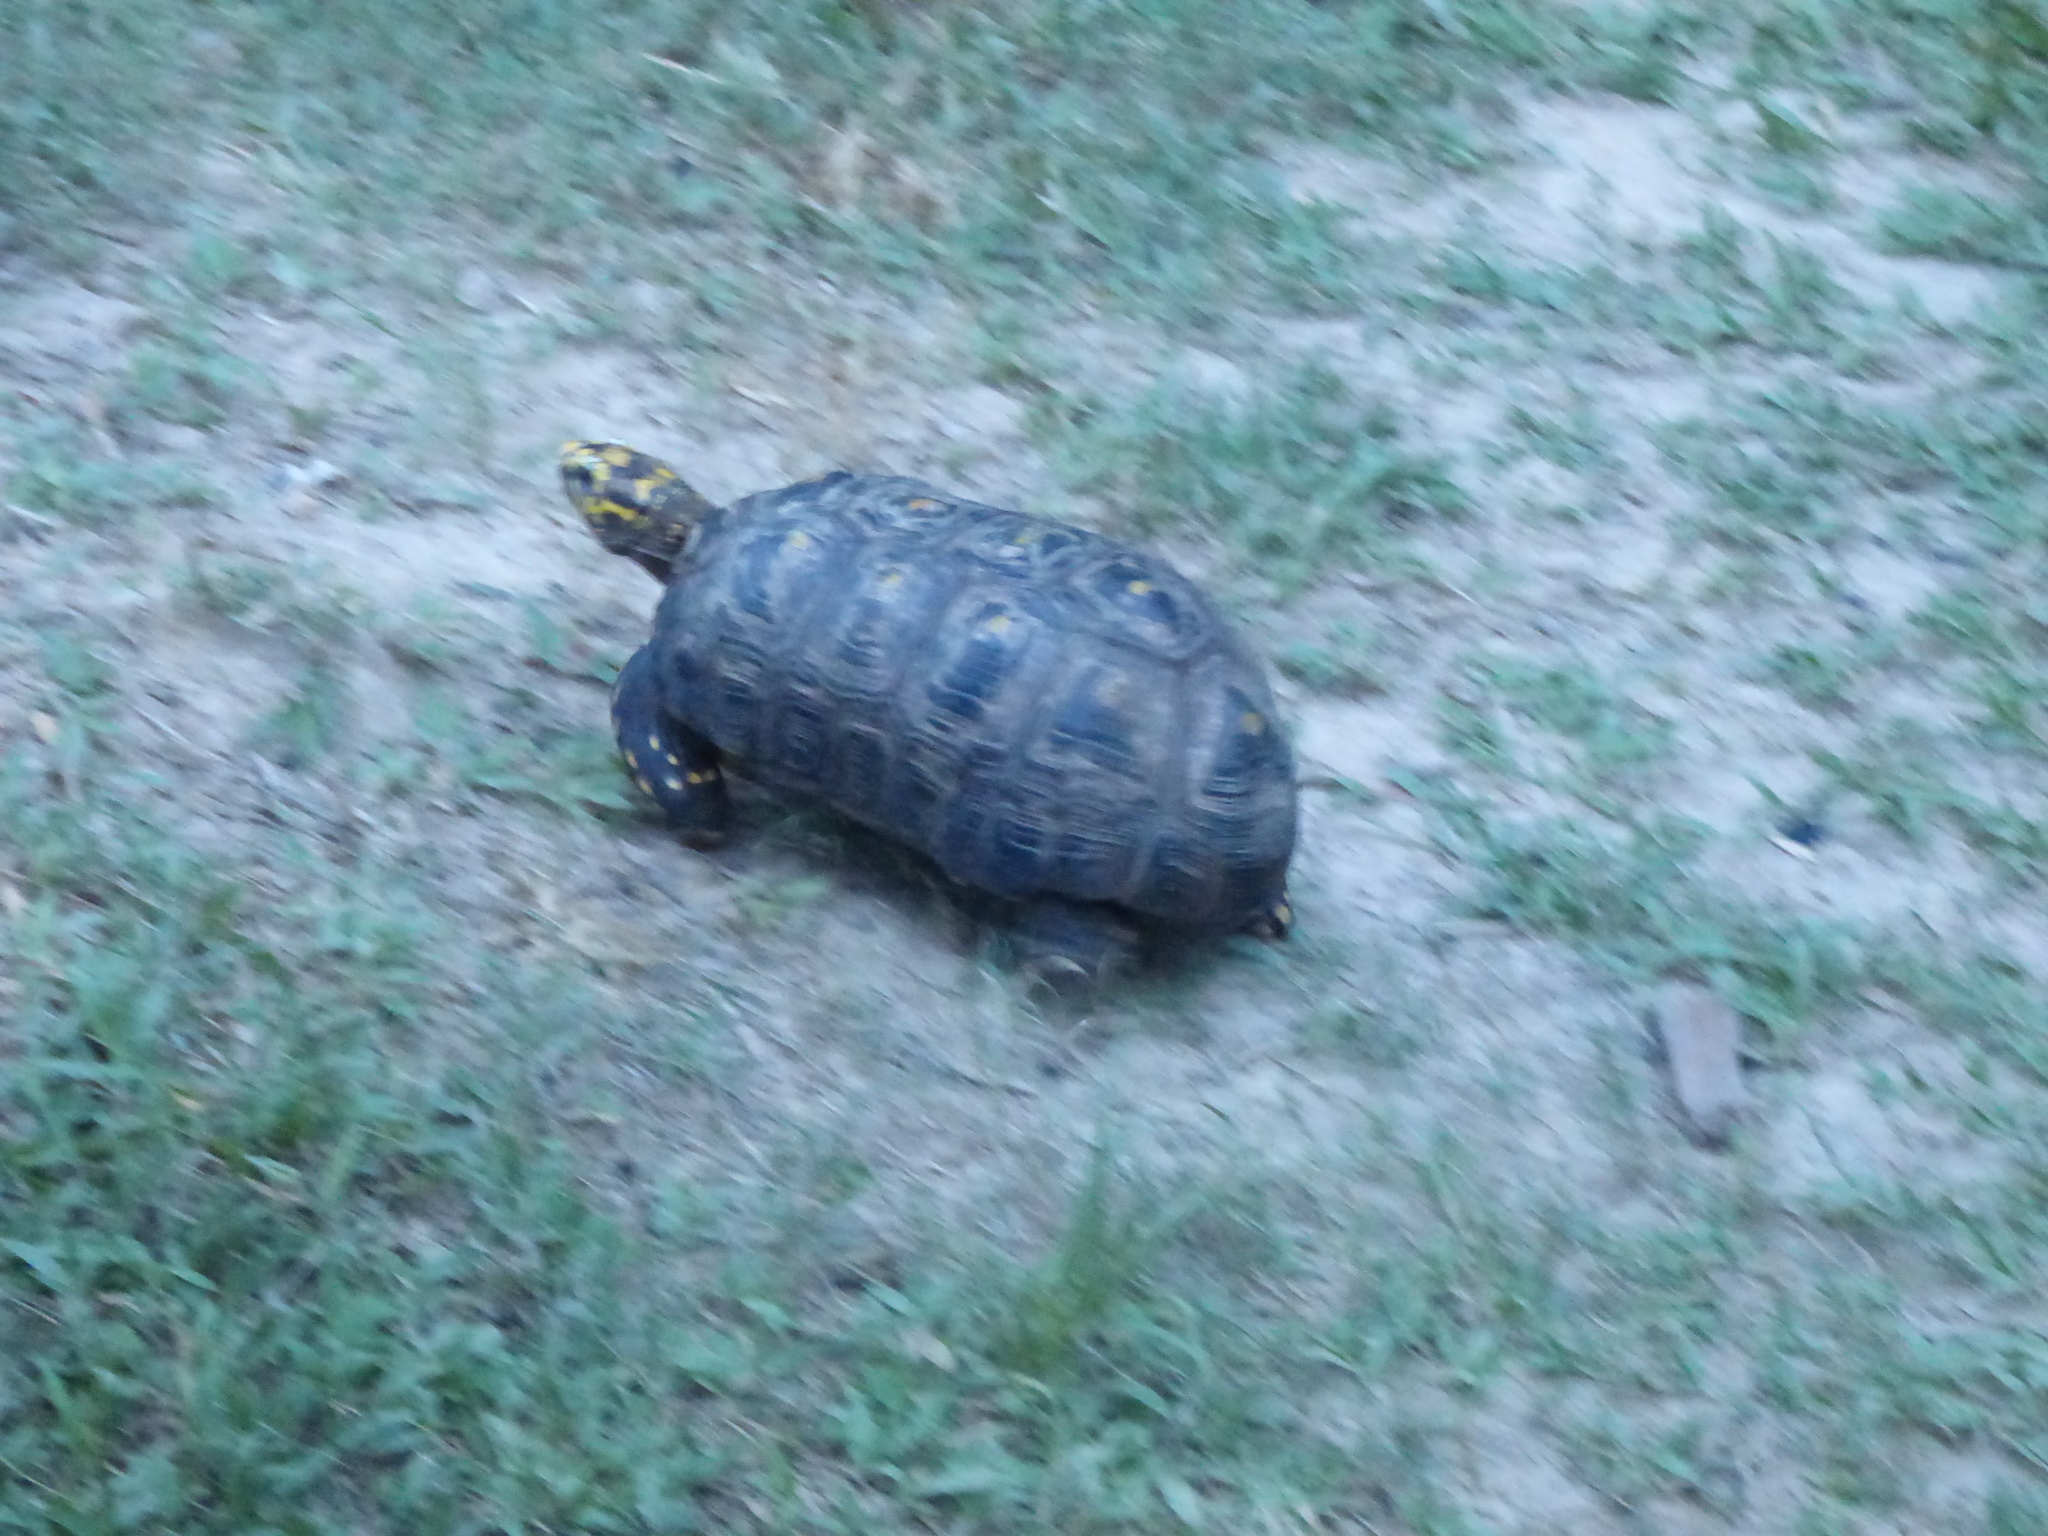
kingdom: Animalia
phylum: Chordata
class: Testudines
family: Testudinidae
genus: Chelonoidis
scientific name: Chelonoidis carbonarius
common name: Red-footed tortoise
